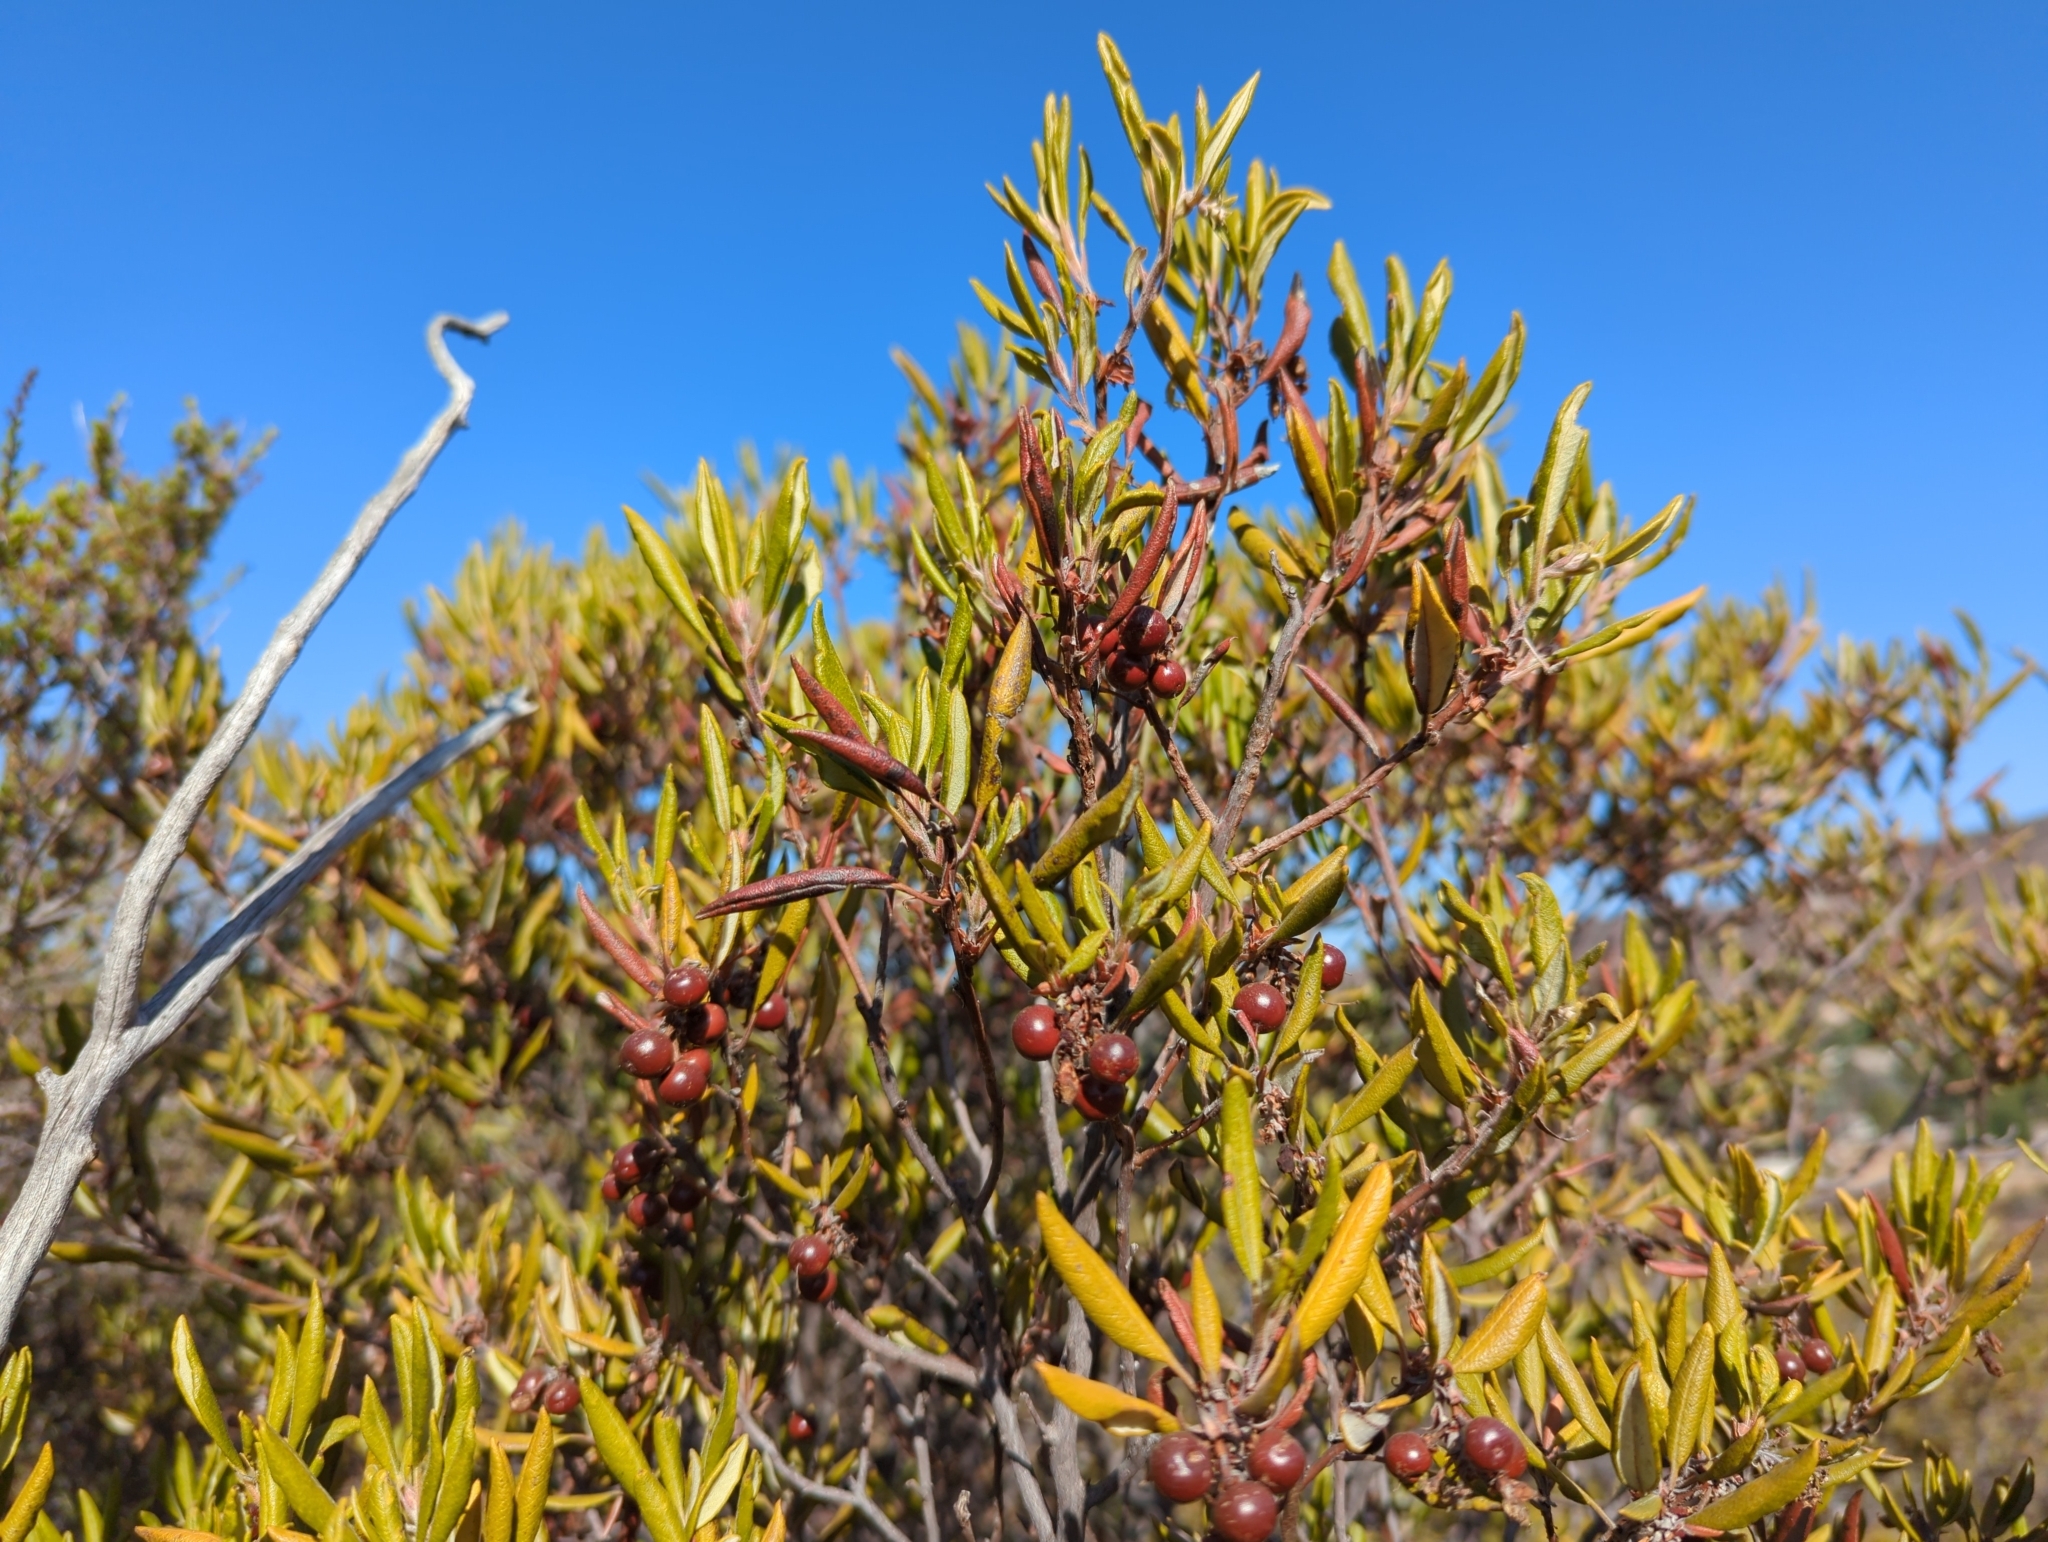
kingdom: Plantae
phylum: Tracheophyta
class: Magnoliopsida
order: Ericales
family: Ericaceae
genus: Arctostaphylos
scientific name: Arctostaphylos bicolor
